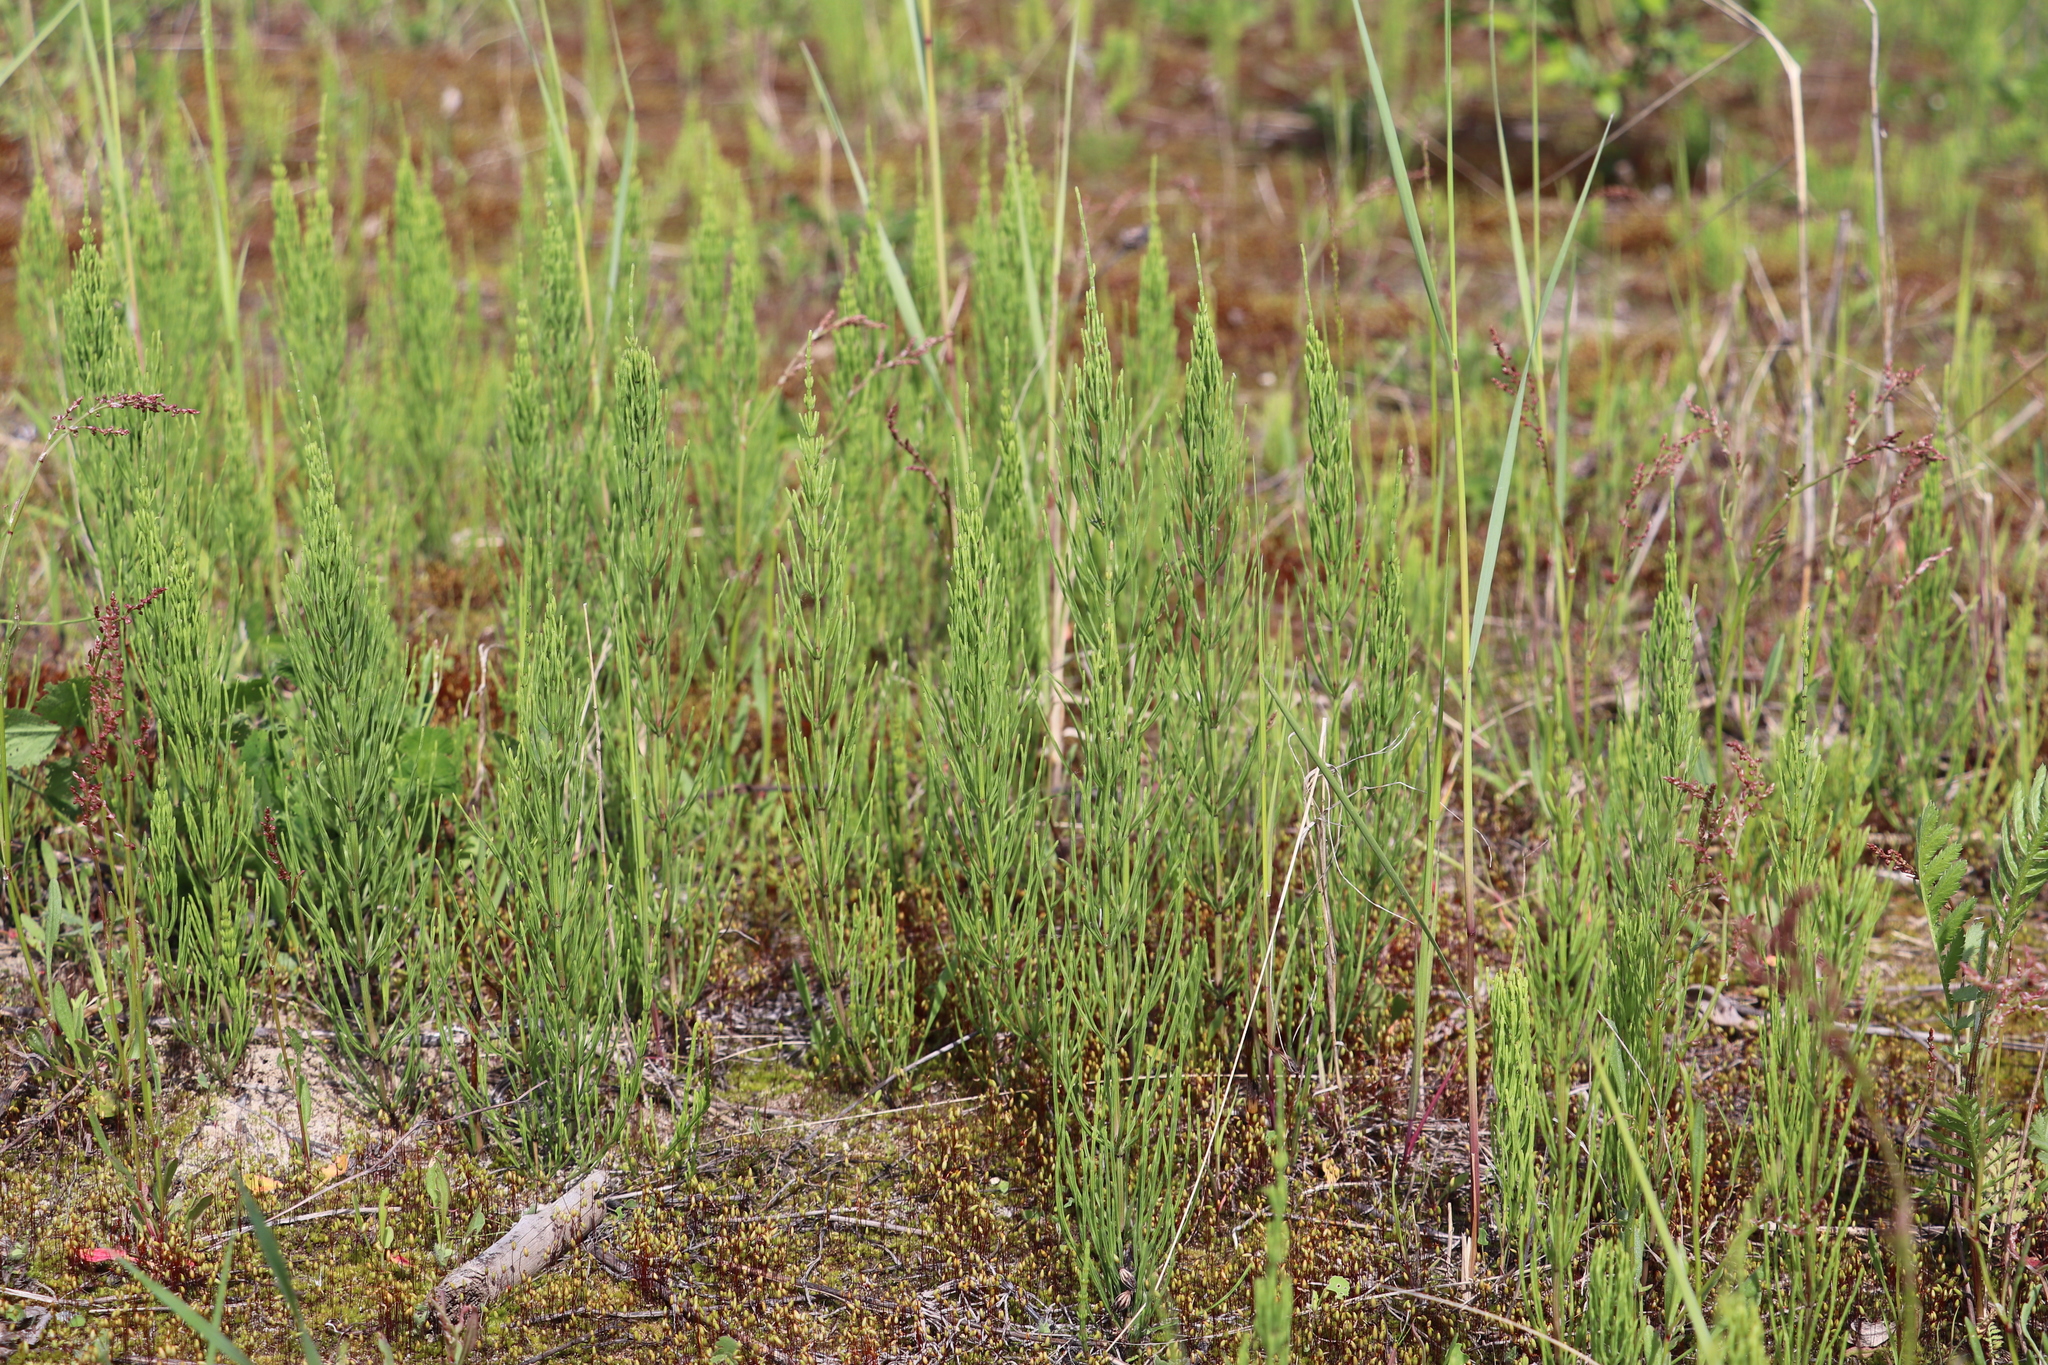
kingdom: Plantae
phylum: Tracheophyta
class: Polypodiopsida
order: Equisetales
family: Equisetaceae
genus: Equisetum
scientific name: Equisetum arvense
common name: Field horsetail
